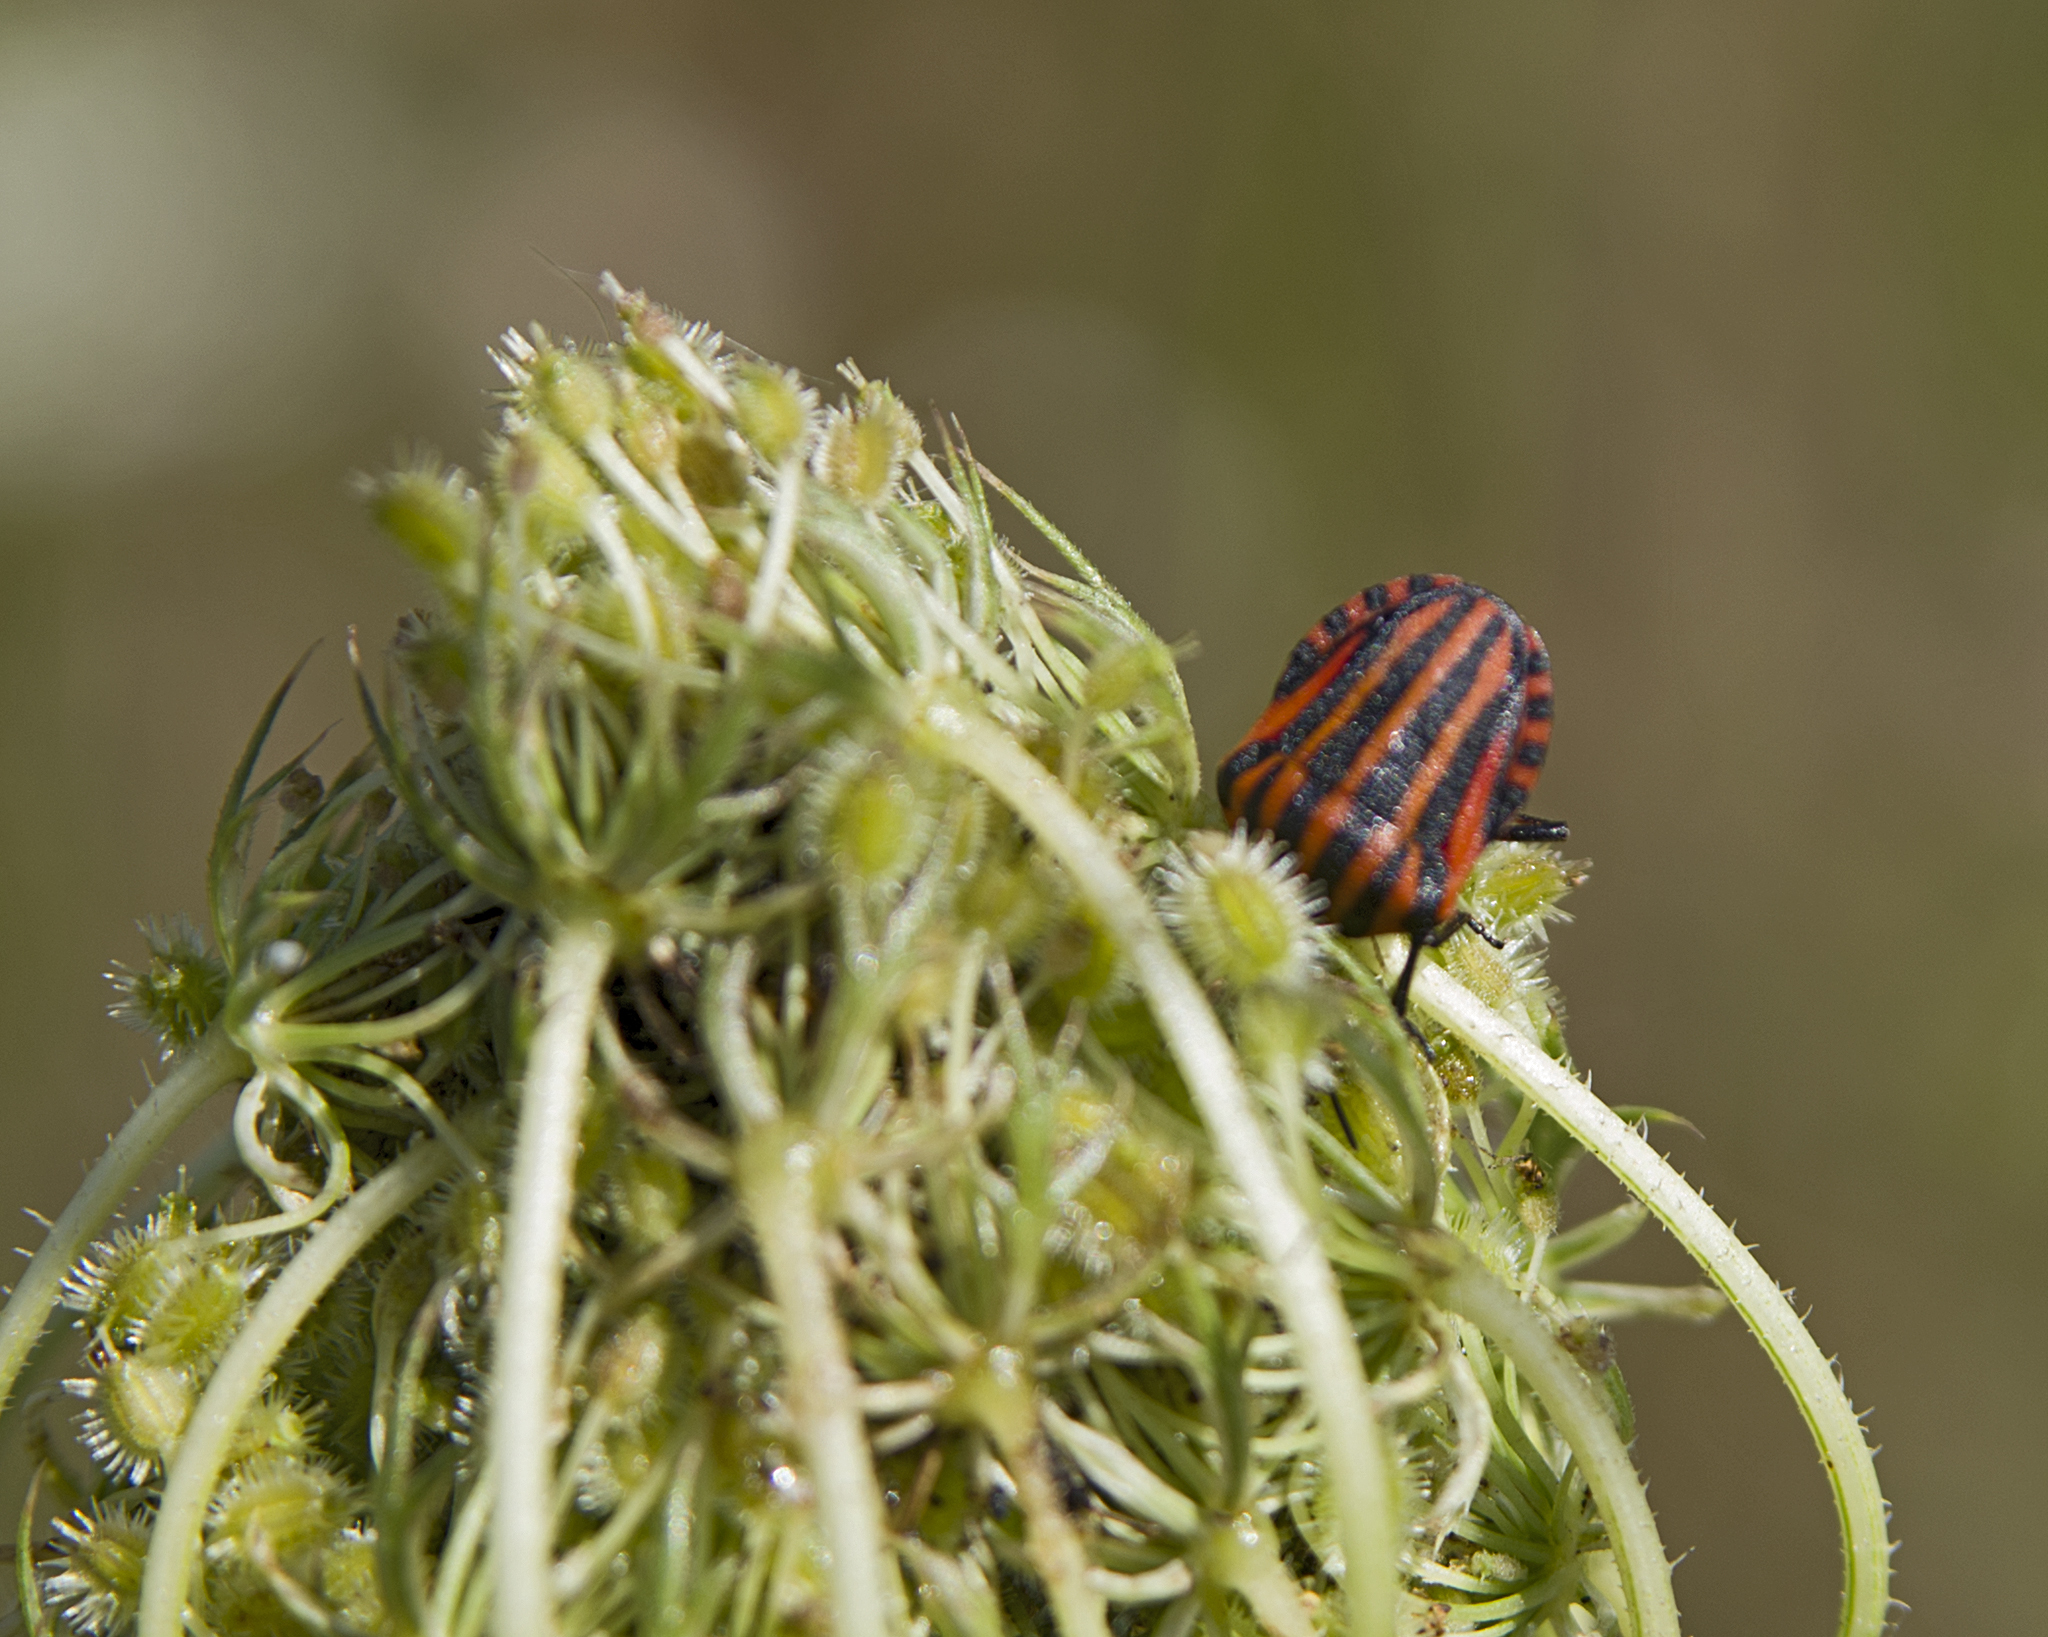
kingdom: Animalia
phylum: Arthropoda
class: Insecta
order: Hemiptera
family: Pentatomidae
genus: Graphosoma
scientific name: Graphosoma italicum
